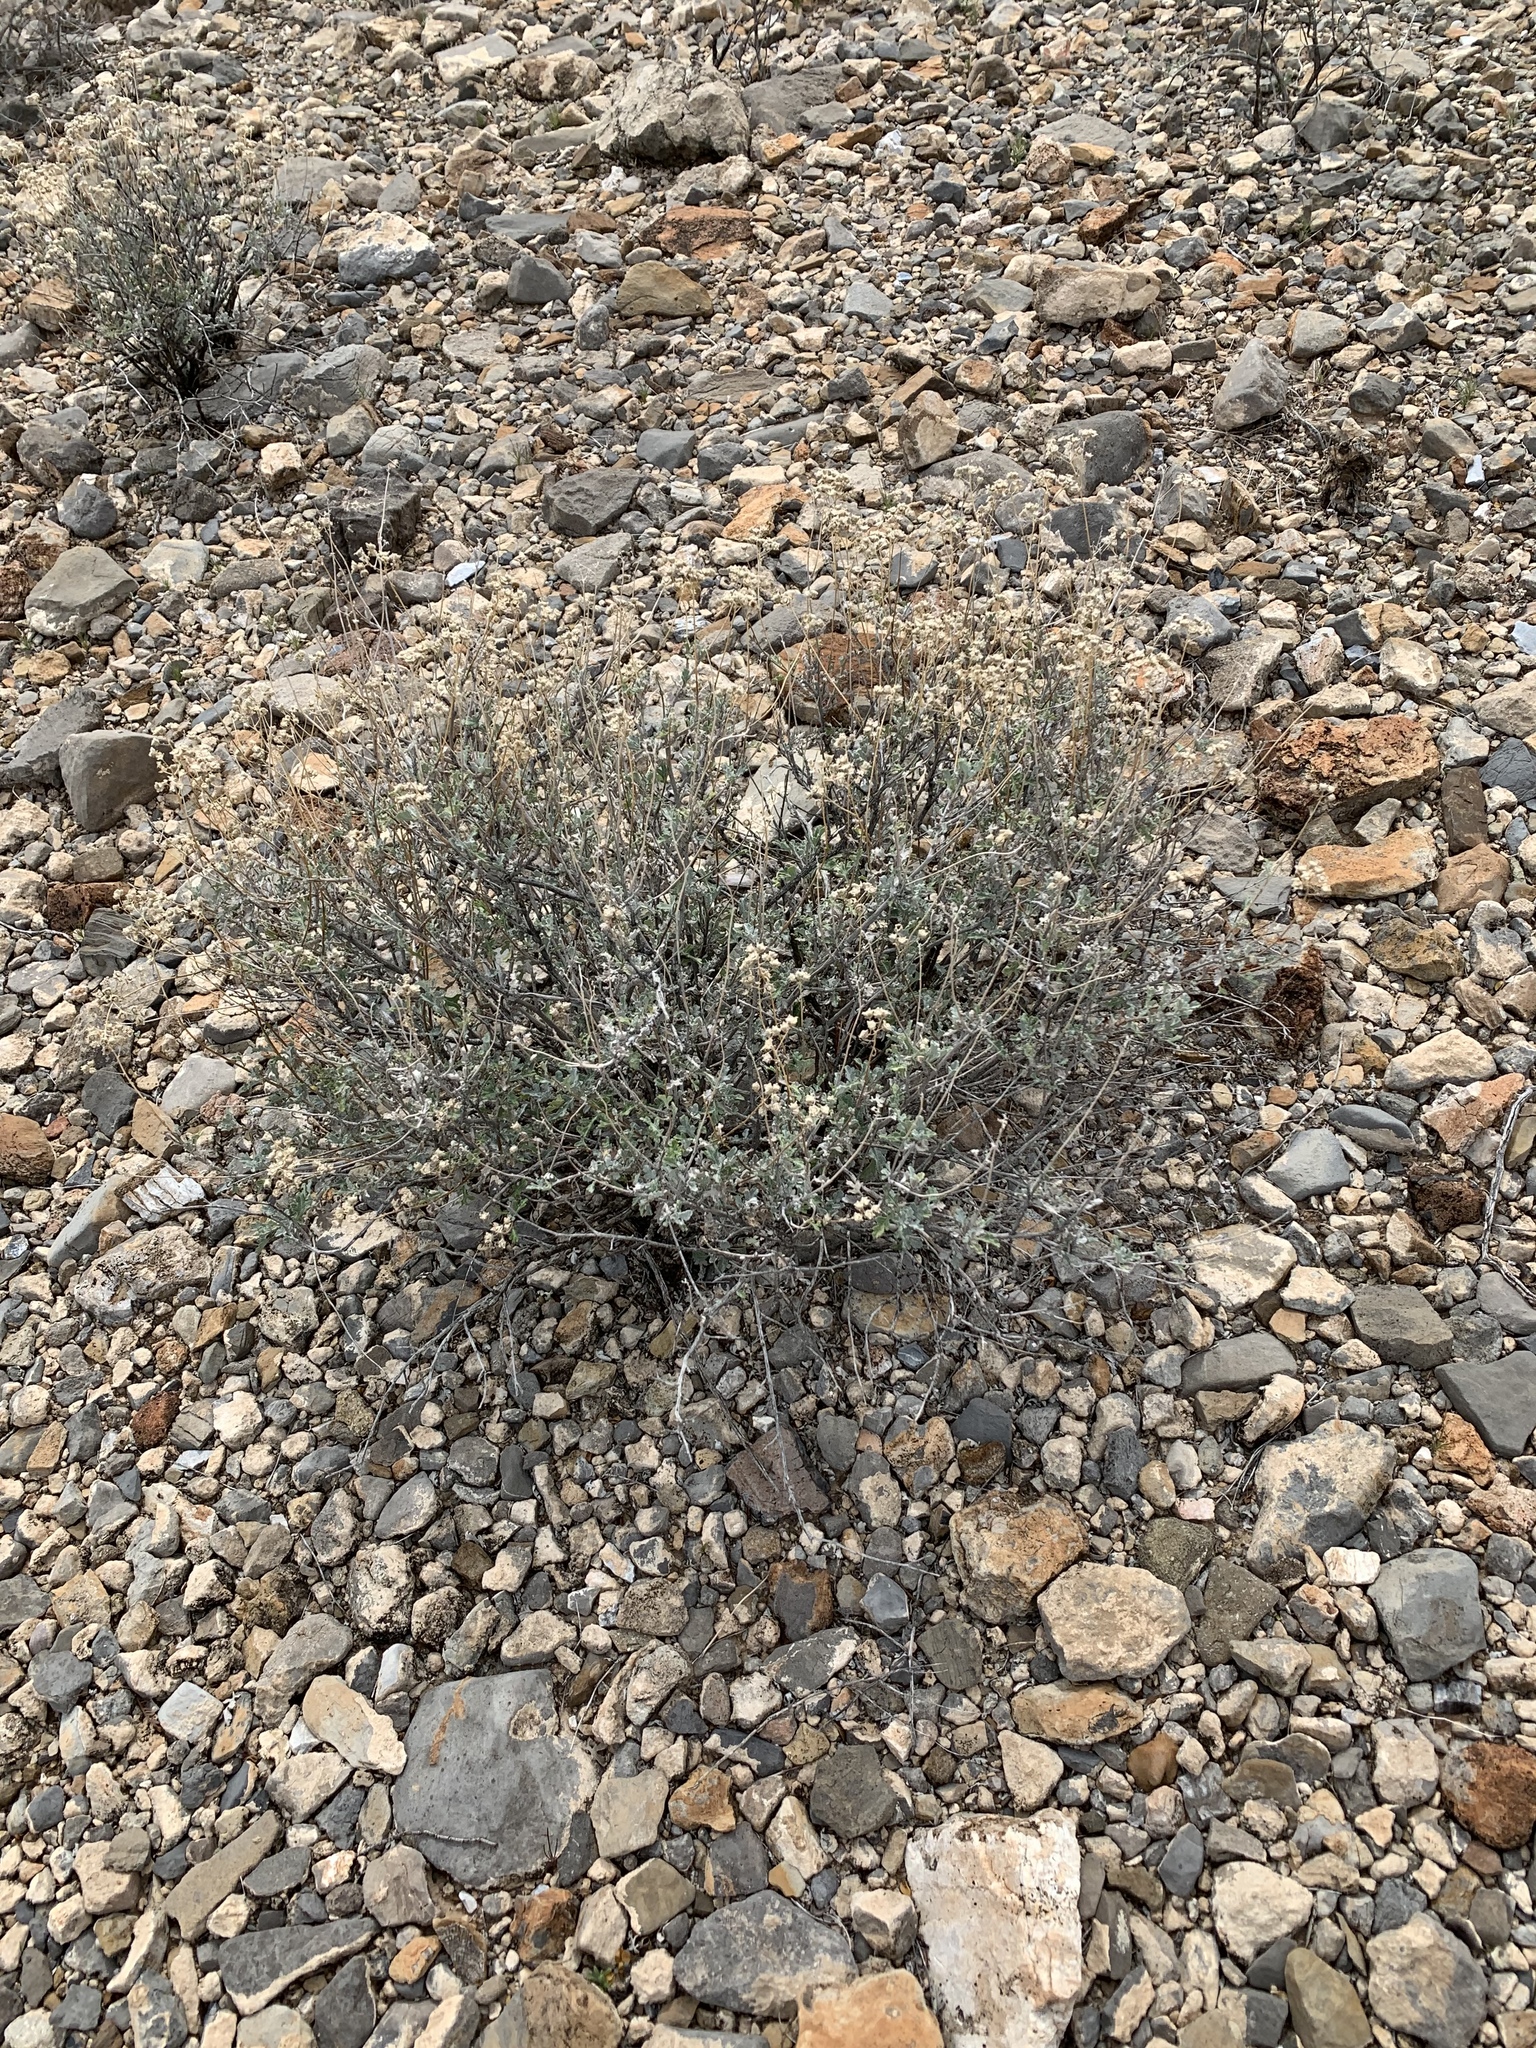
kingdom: Plantae
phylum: Tracheophyta
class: Magnoliopsida
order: Asterales
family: Asteraceae
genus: Parthenium
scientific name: Parthenium incanum
